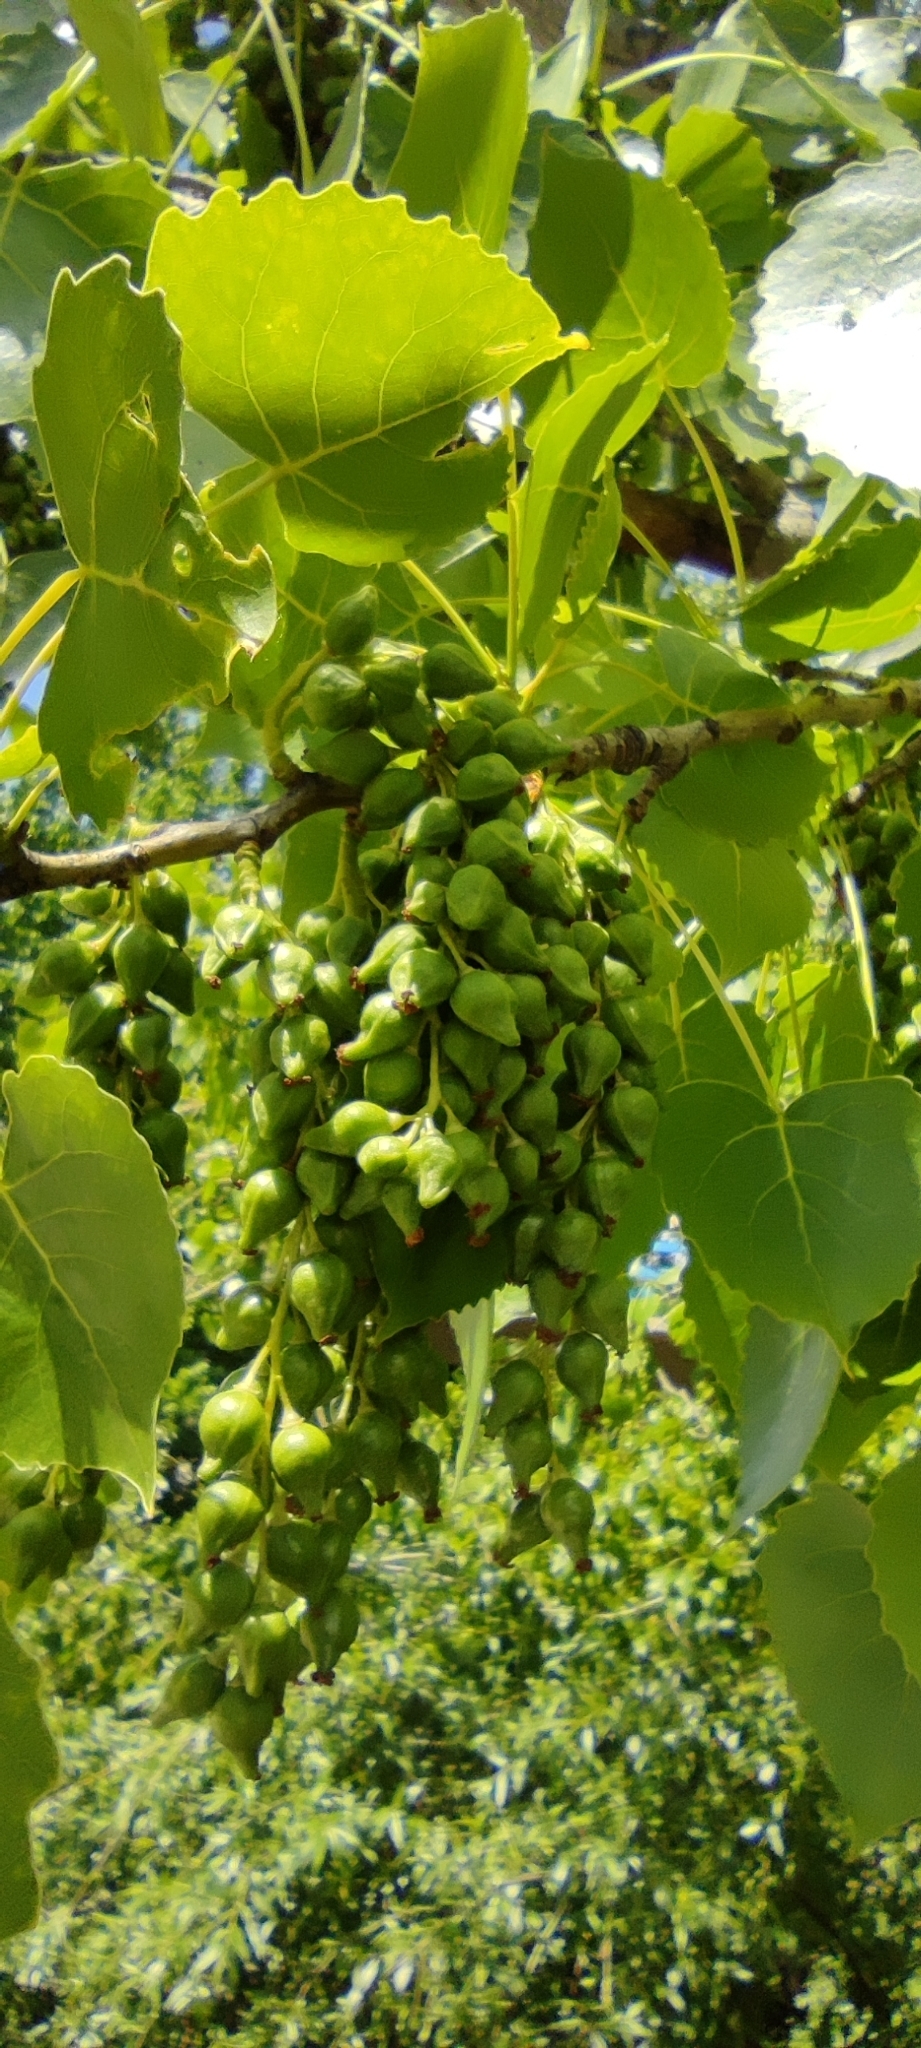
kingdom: Plantae
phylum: Tracheophyta
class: Magnoliopsida
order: Malpighiales
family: Salicaceae
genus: Populus
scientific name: Populus nigra
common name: Black poplar
